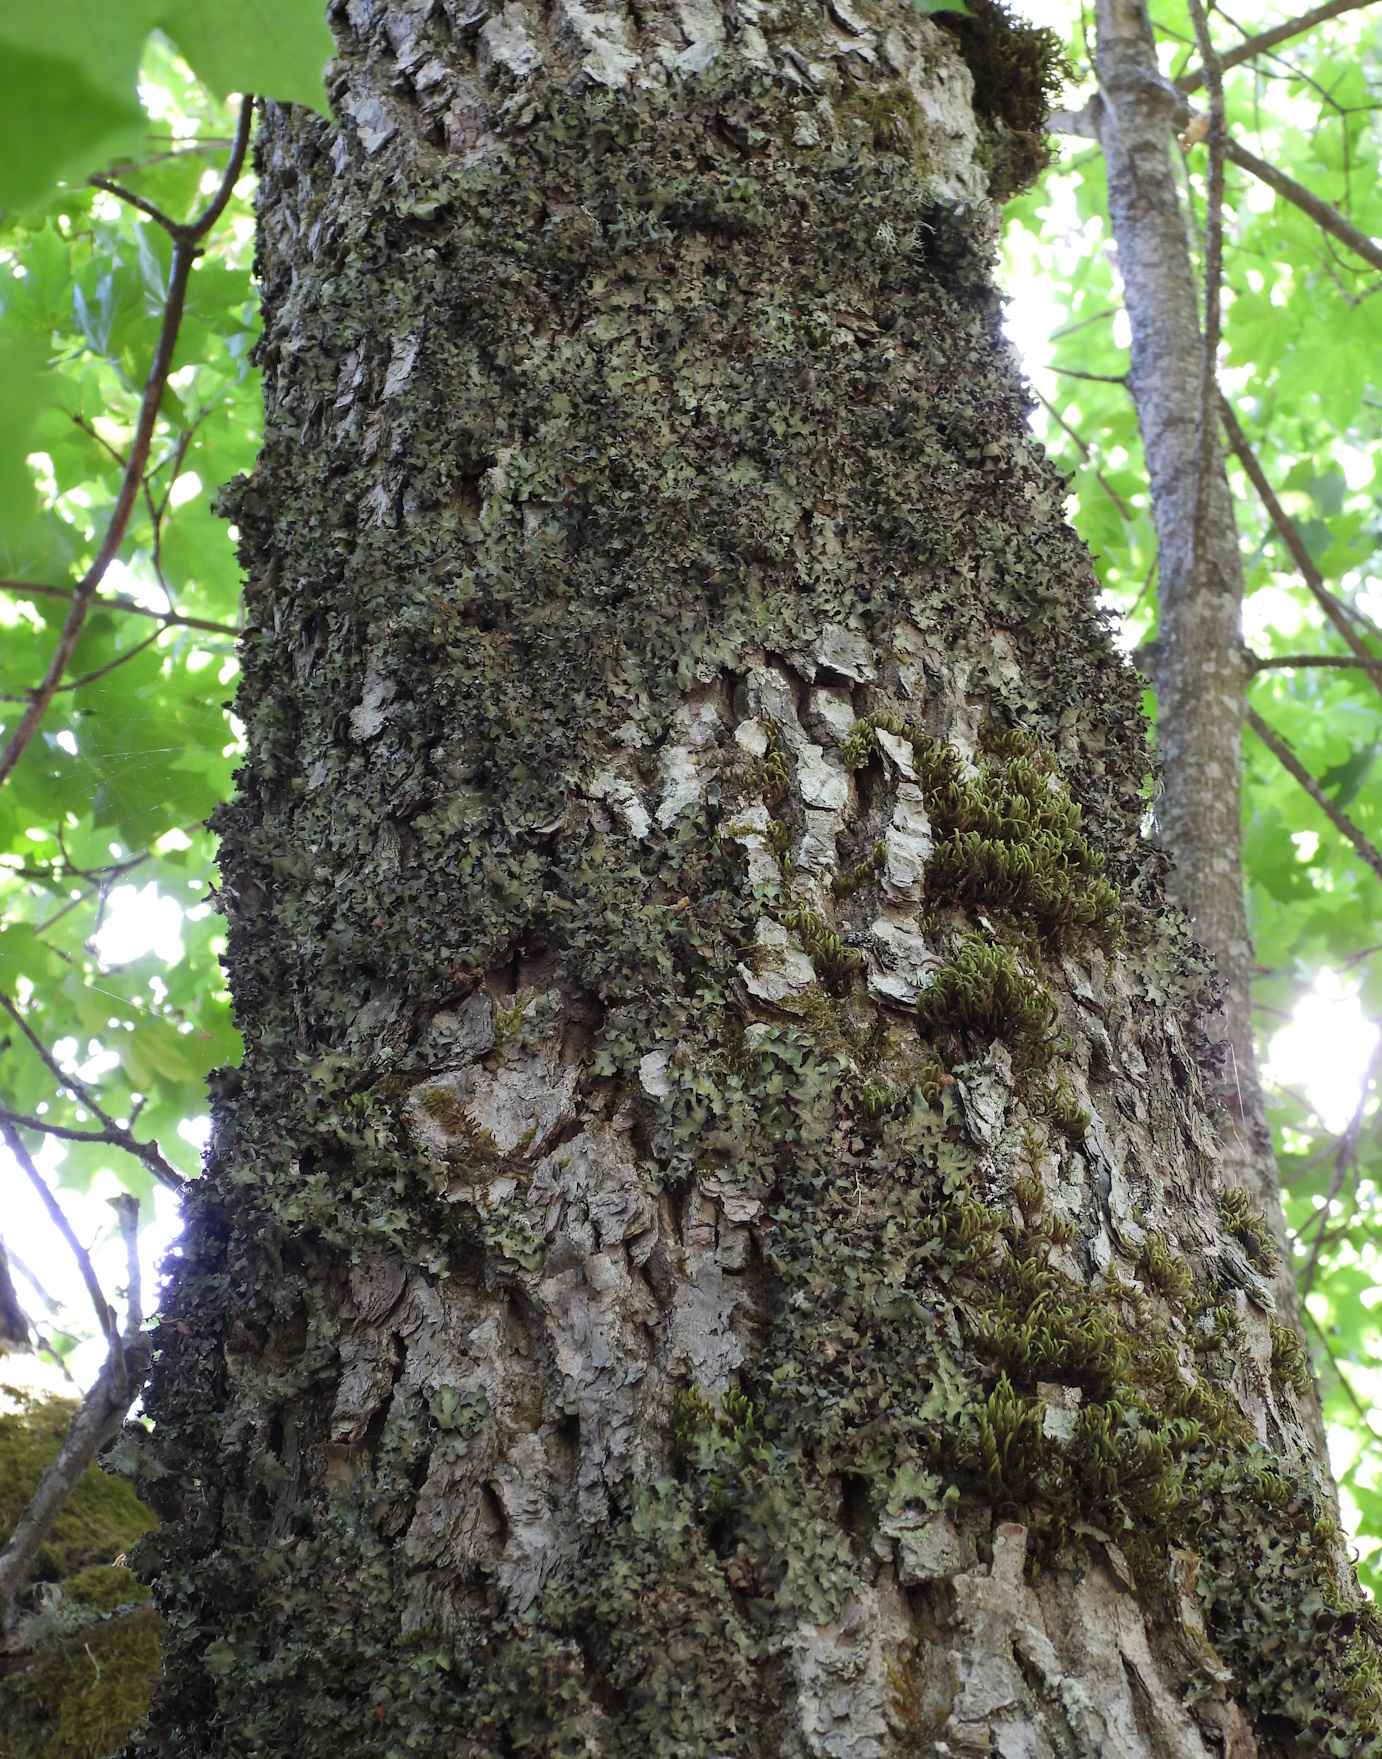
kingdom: Fungi
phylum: Ascomycota
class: Lecanoromycetes
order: Lecanorales
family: Parmeliaceae
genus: Pleurosticta
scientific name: Pleurosticta acetabulum
